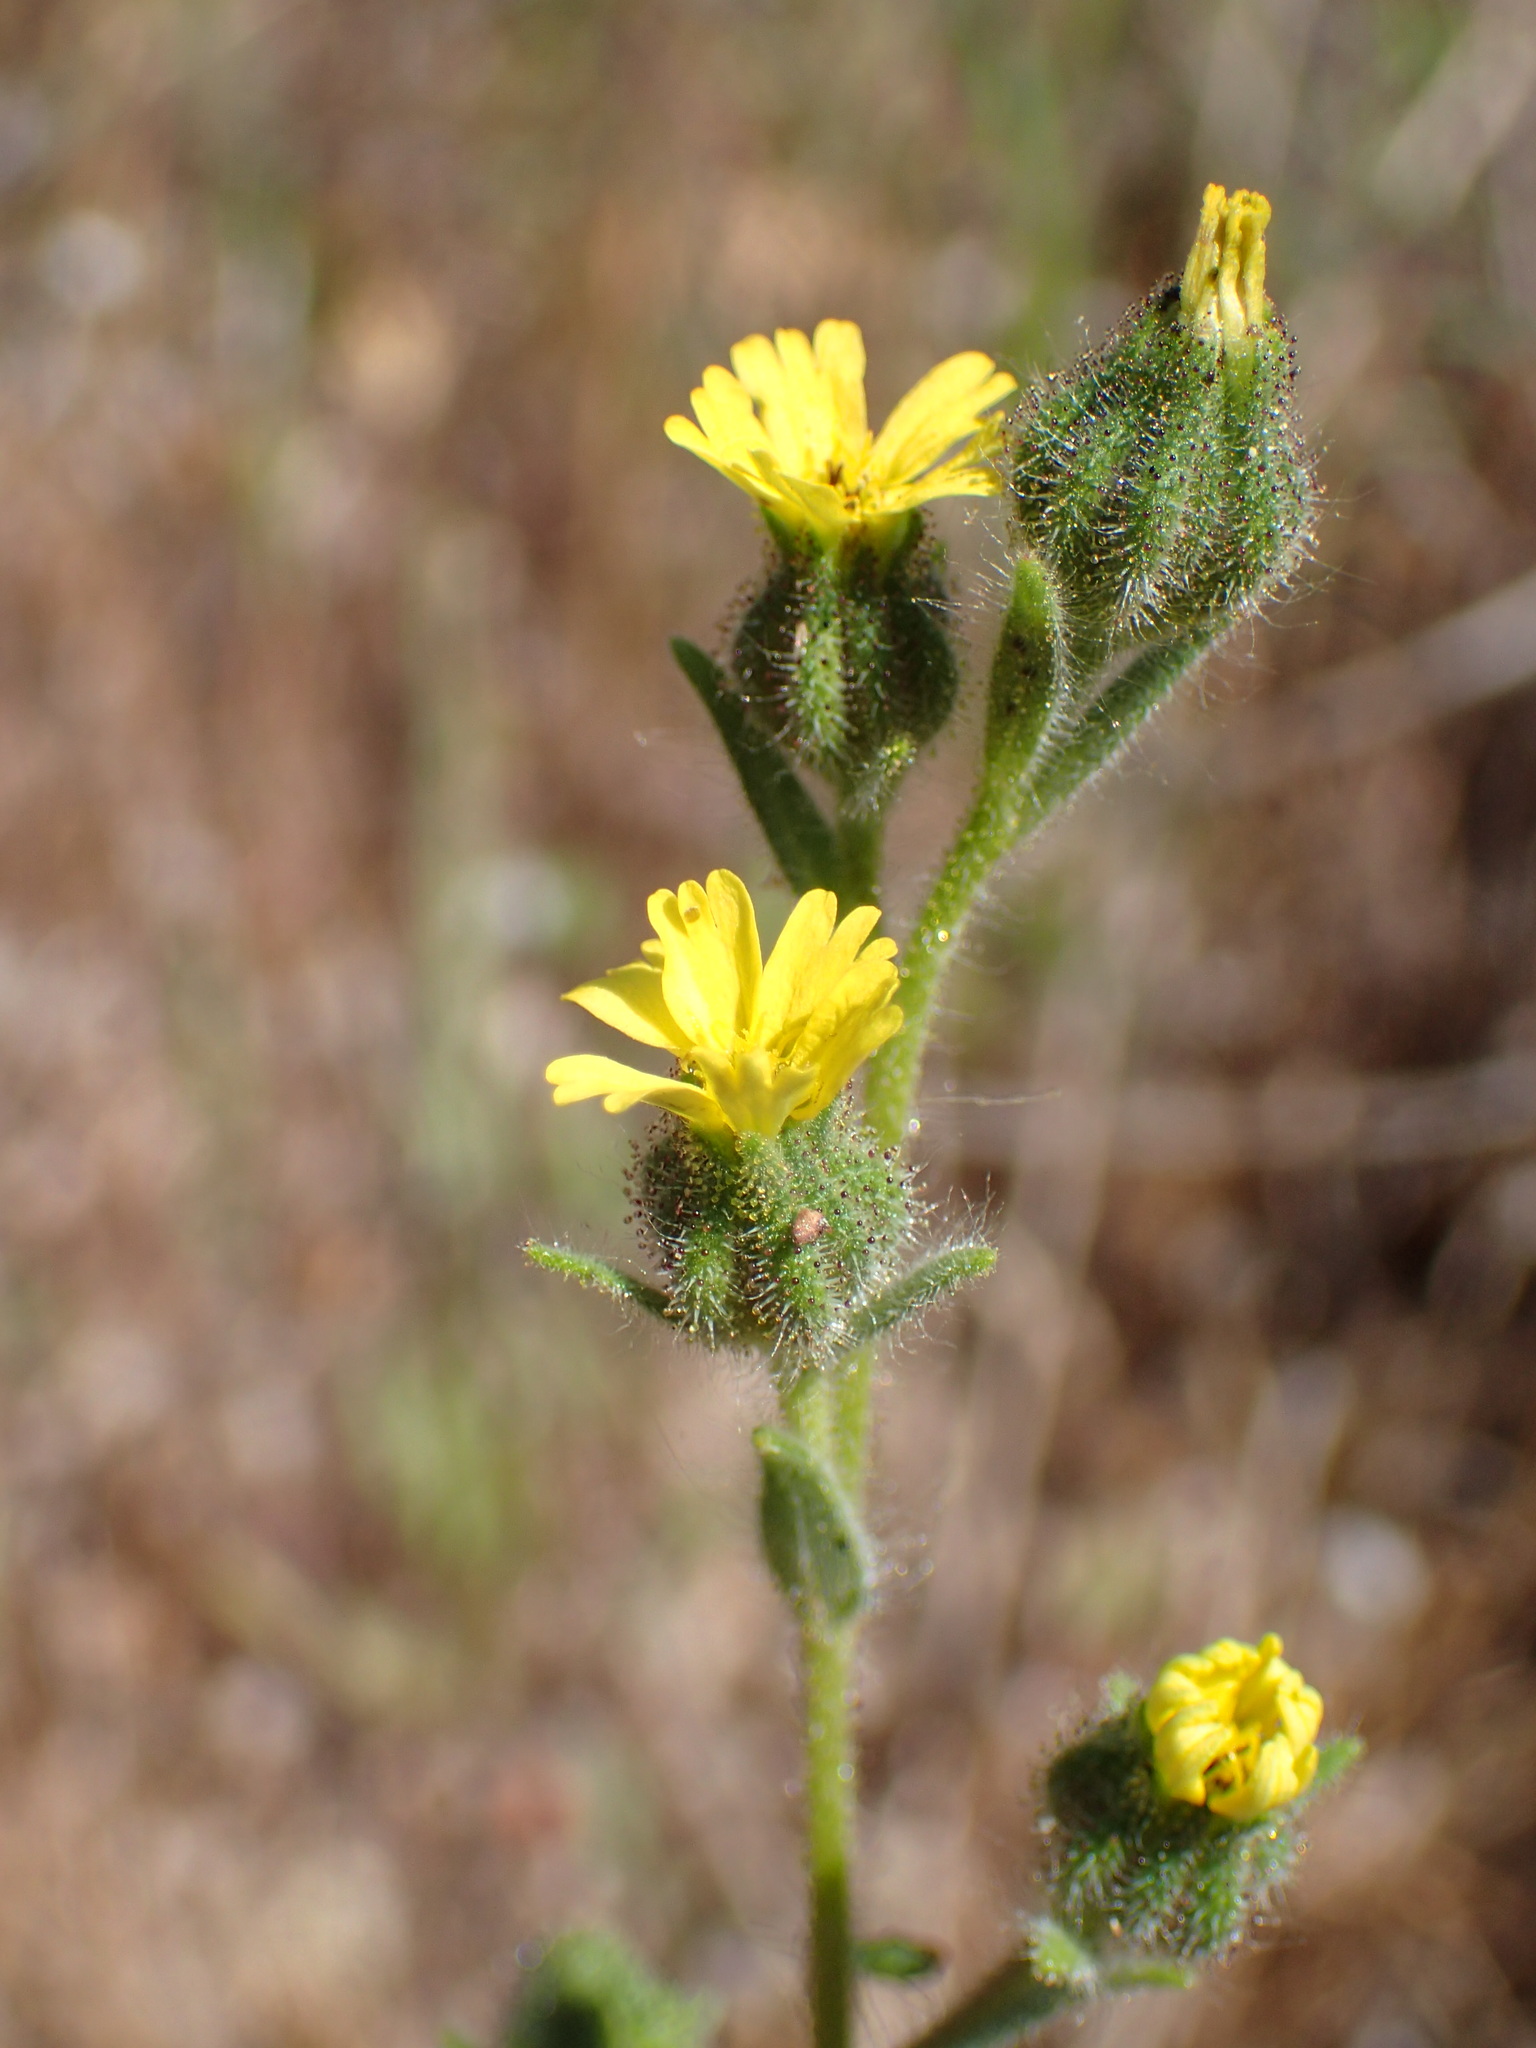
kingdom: Plantae
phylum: Tracheophyta
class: Magnoliopsida
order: Asterales
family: Asteraceae
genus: Madia
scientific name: Madia gracilis
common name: Grassy tarweed
